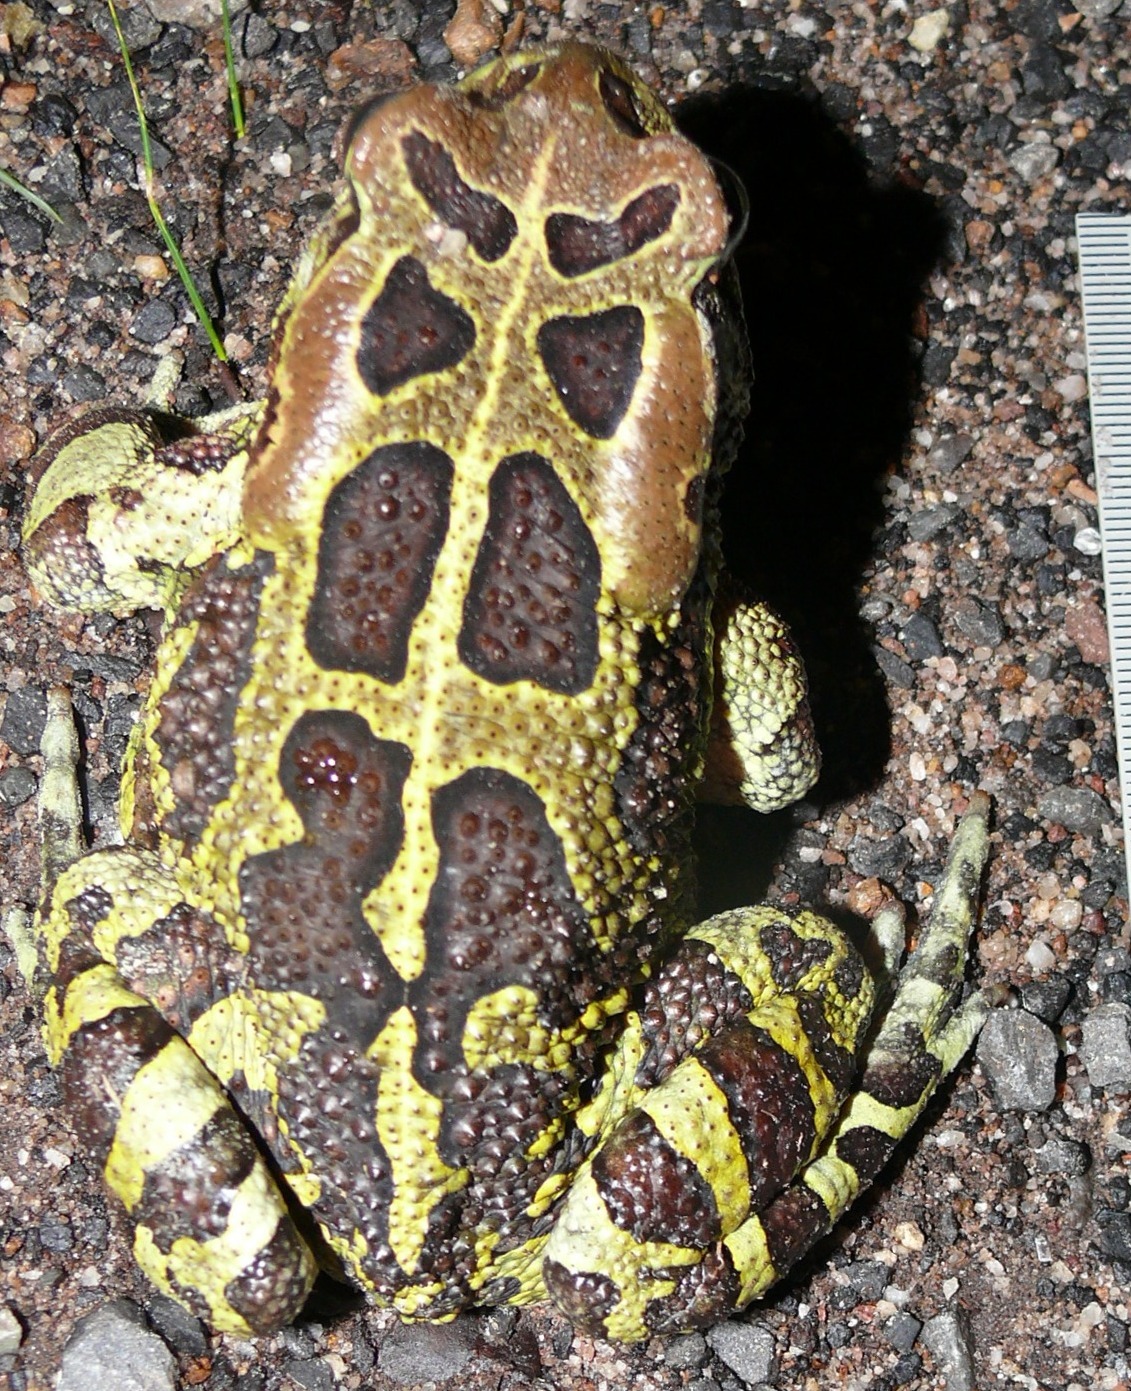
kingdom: Animalia
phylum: Chordata
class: Amphibia
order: Anura
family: Bufonidae
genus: Sclerophrys
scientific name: Sclerophrys pantherina
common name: Panther toad
